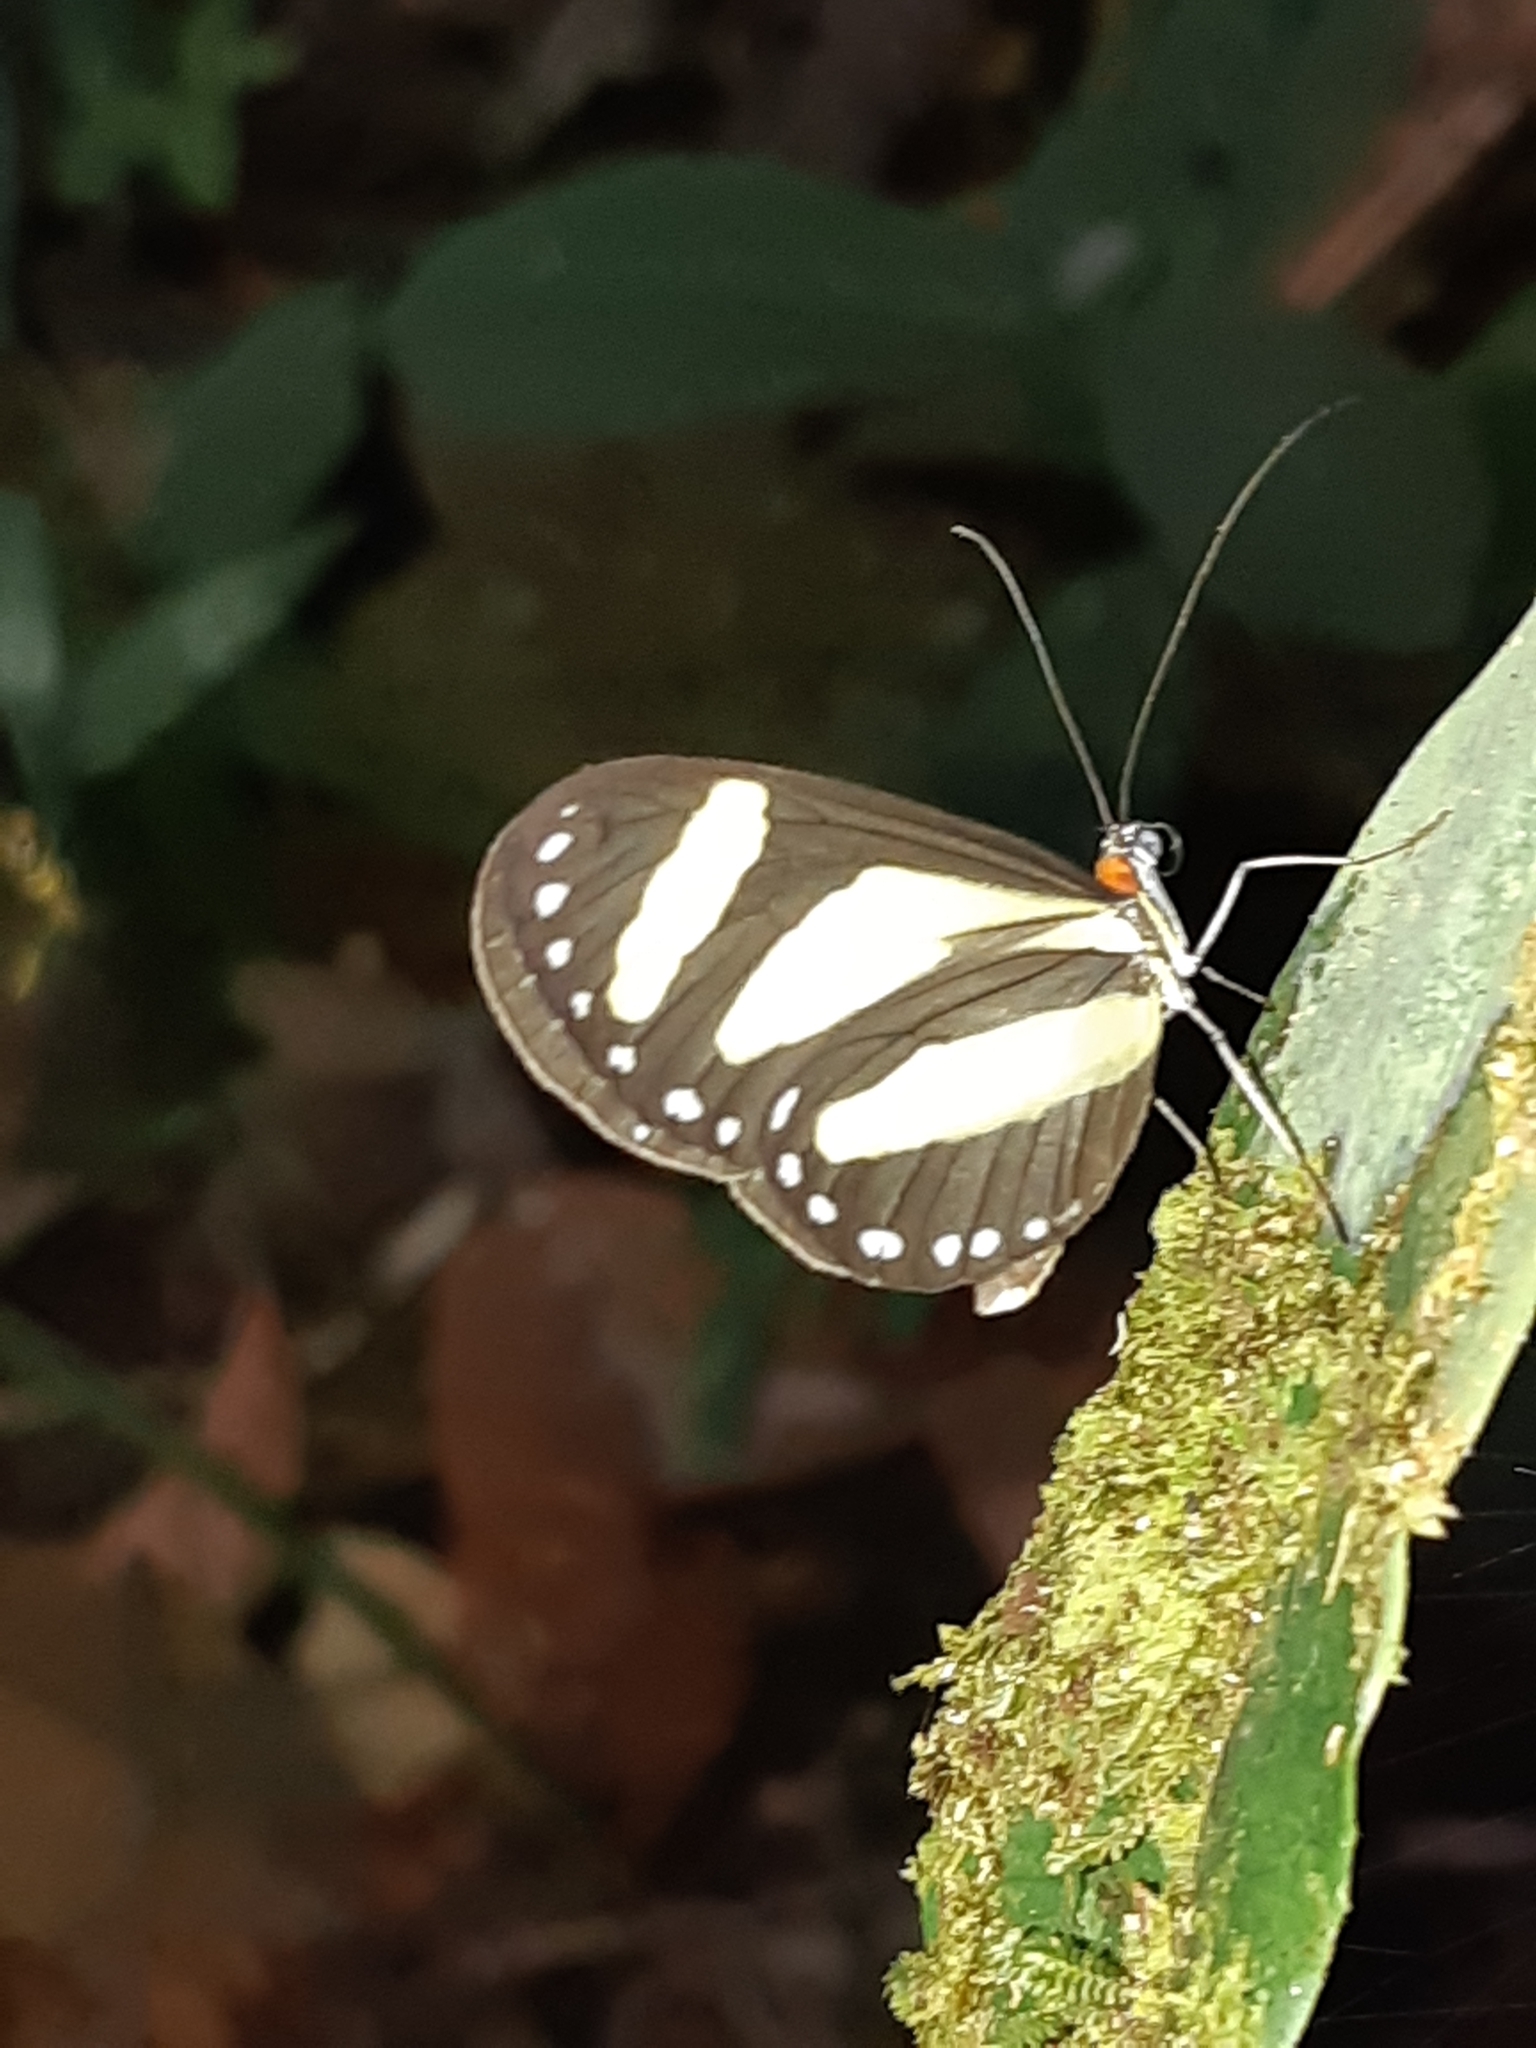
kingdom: Animalia
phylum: Arthropoda
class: Insecta
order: Lepidoptera
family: Nymphalidae
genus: Aeria
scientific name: Aeria eurimedia
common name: Banded tigerwing
